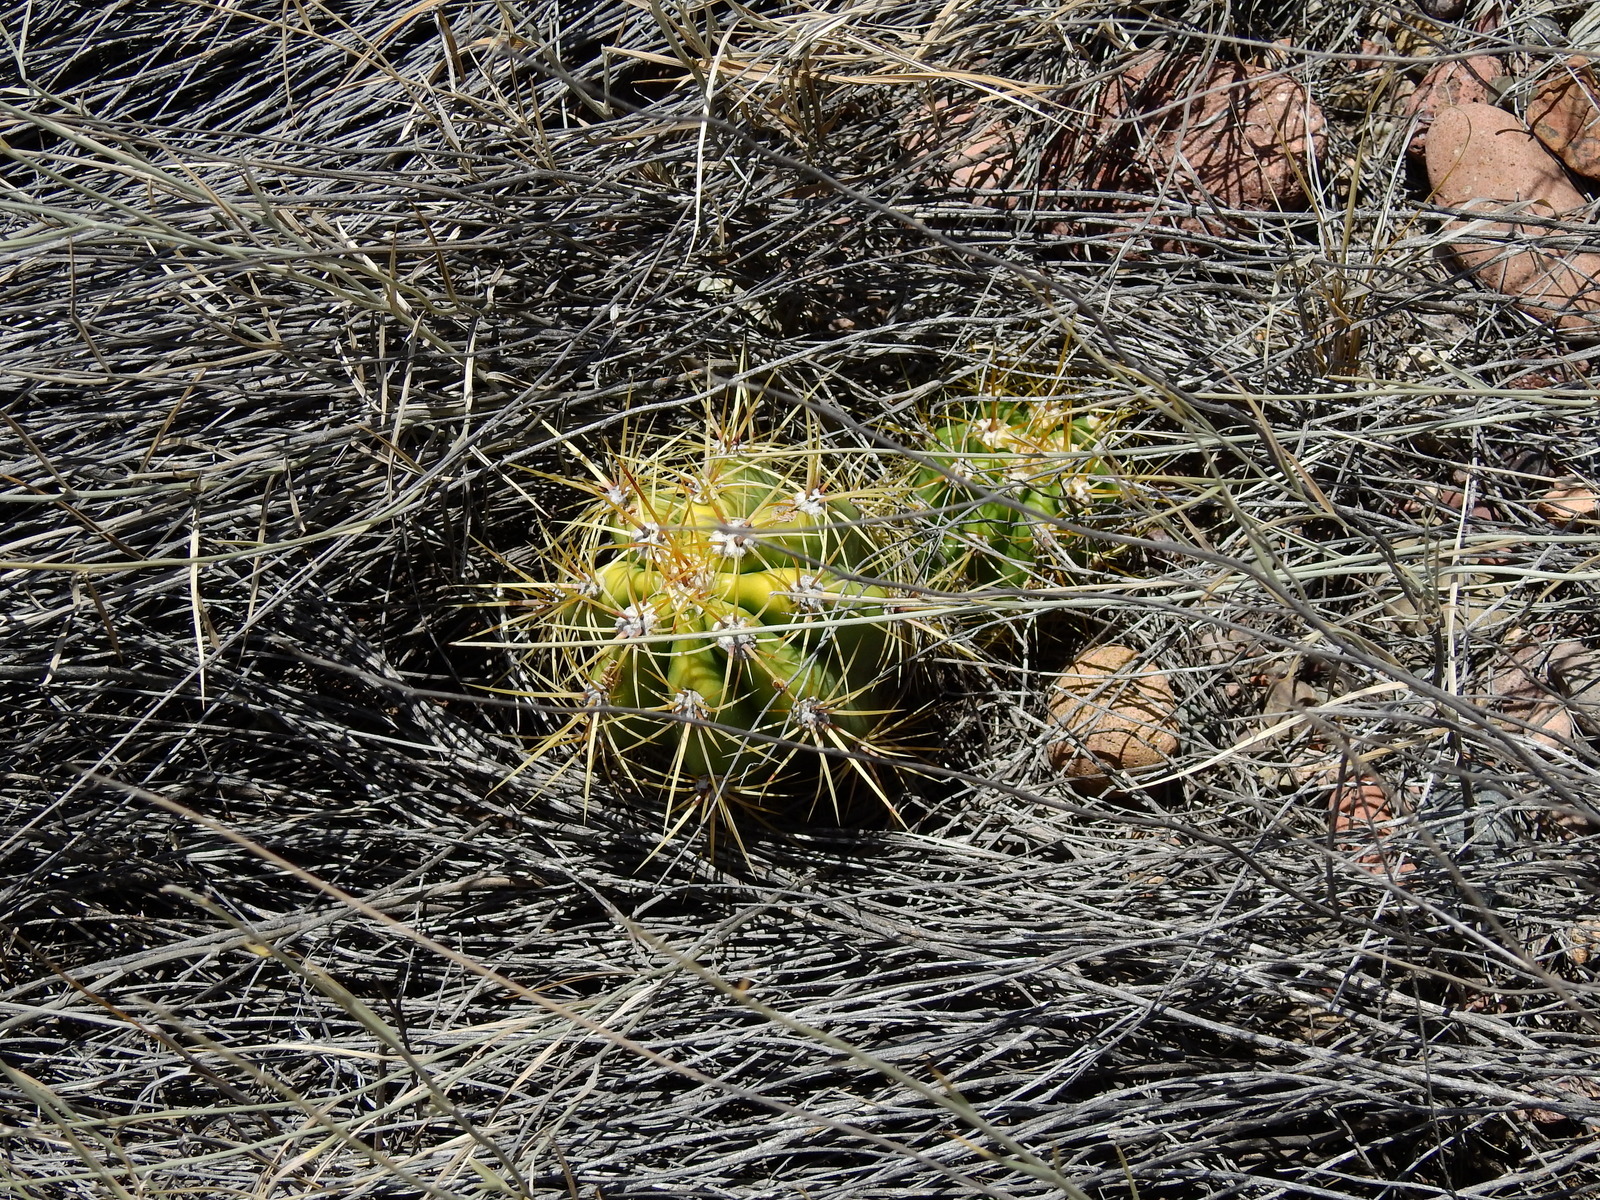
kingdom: Plantae
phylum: Tracheophyta
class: Magnoliopsida
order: Caryophyllales
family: Cactaceae
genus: Soehrensia
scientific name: Soehrensia candicans
